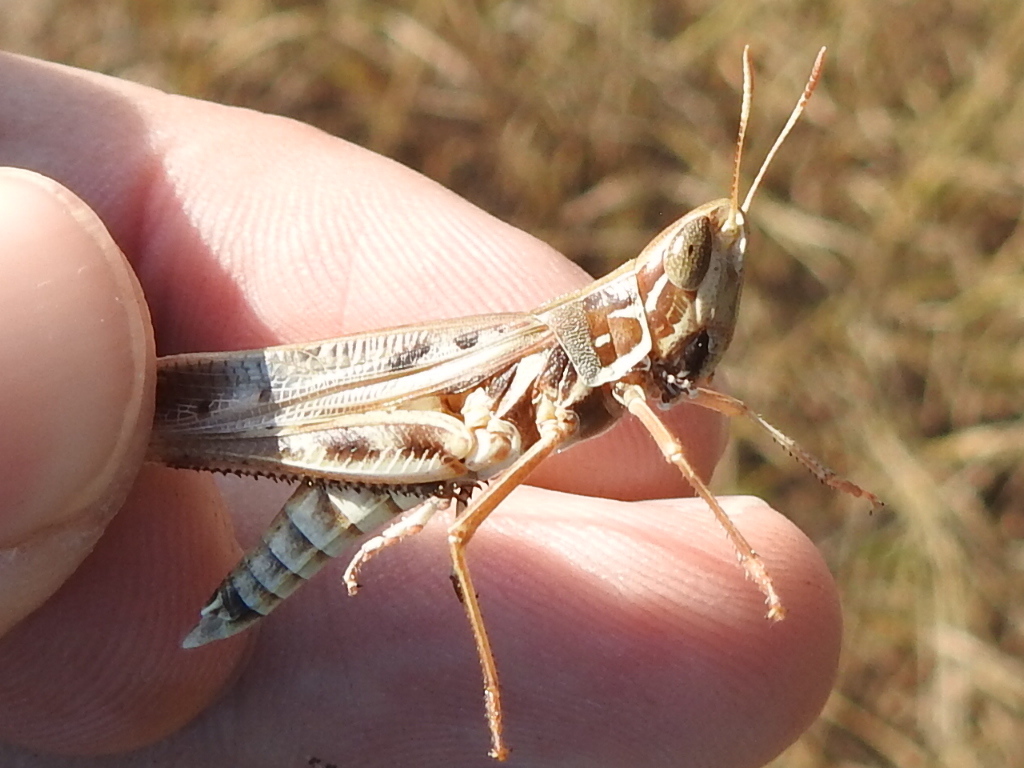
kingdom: Animalia
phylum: Arthropoda
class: Insecta
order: Orthoptera
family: Acrididae
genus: Syrbula
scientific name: Syrbula admirabilis
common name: Handsome grasshopper
